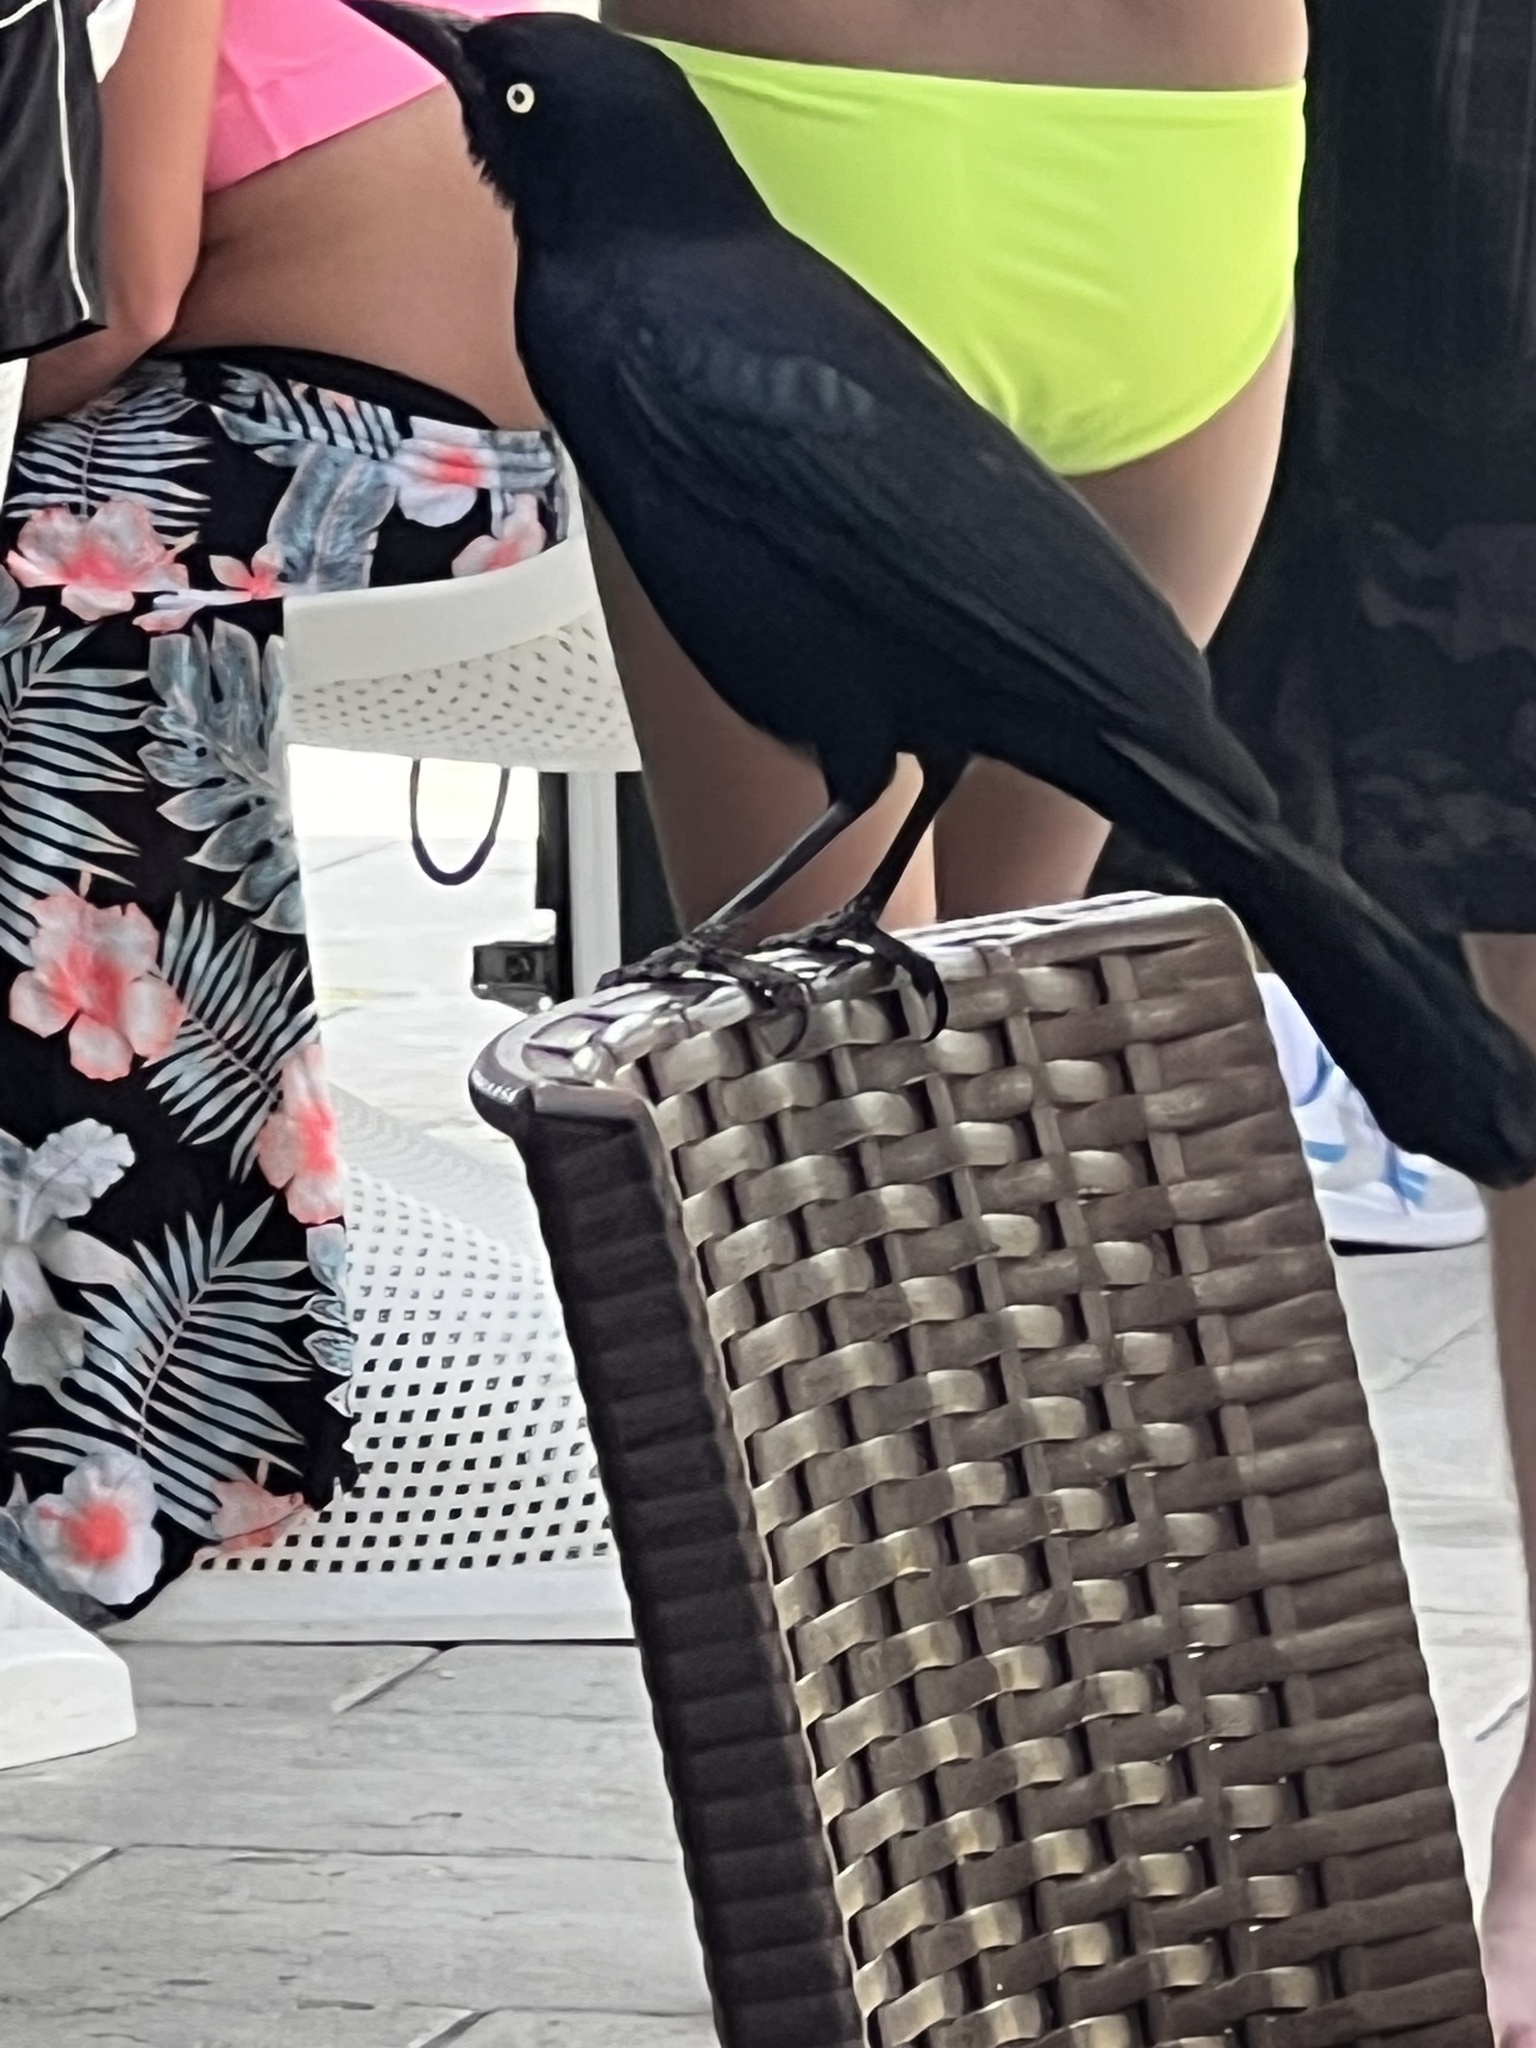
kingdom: Animalia
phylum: Chordata
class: Aves
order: Passeriformes
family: Icteridae
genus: Quiscalus
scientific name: Quiscalus niger
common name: Greater antillean grackle
